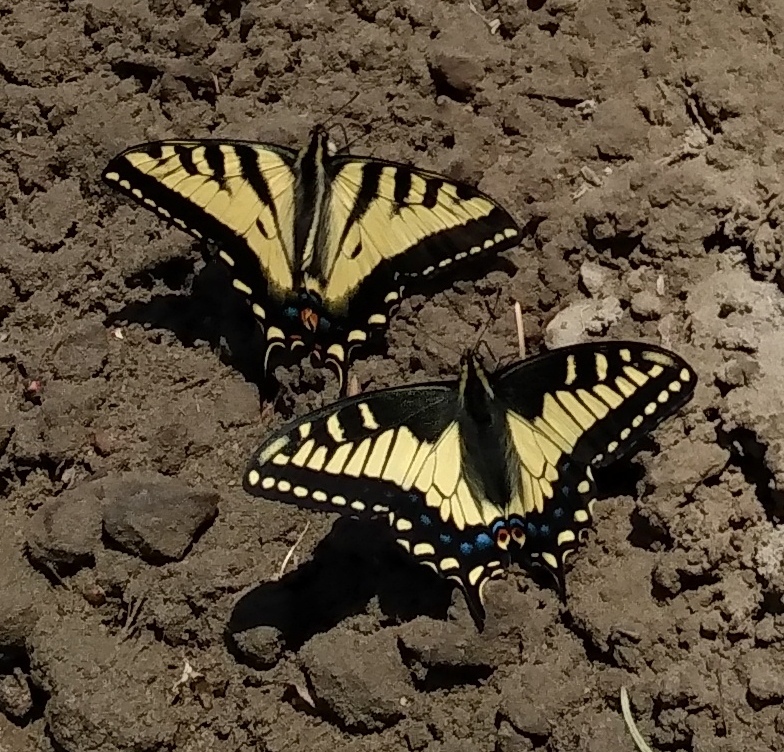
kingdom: Animalia
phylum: Arthropoda
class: Insecta
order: Lepidoptera
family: Papilionidae
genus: Papilio
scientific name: Papilio rutulus
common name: Western tiger swallowtail
